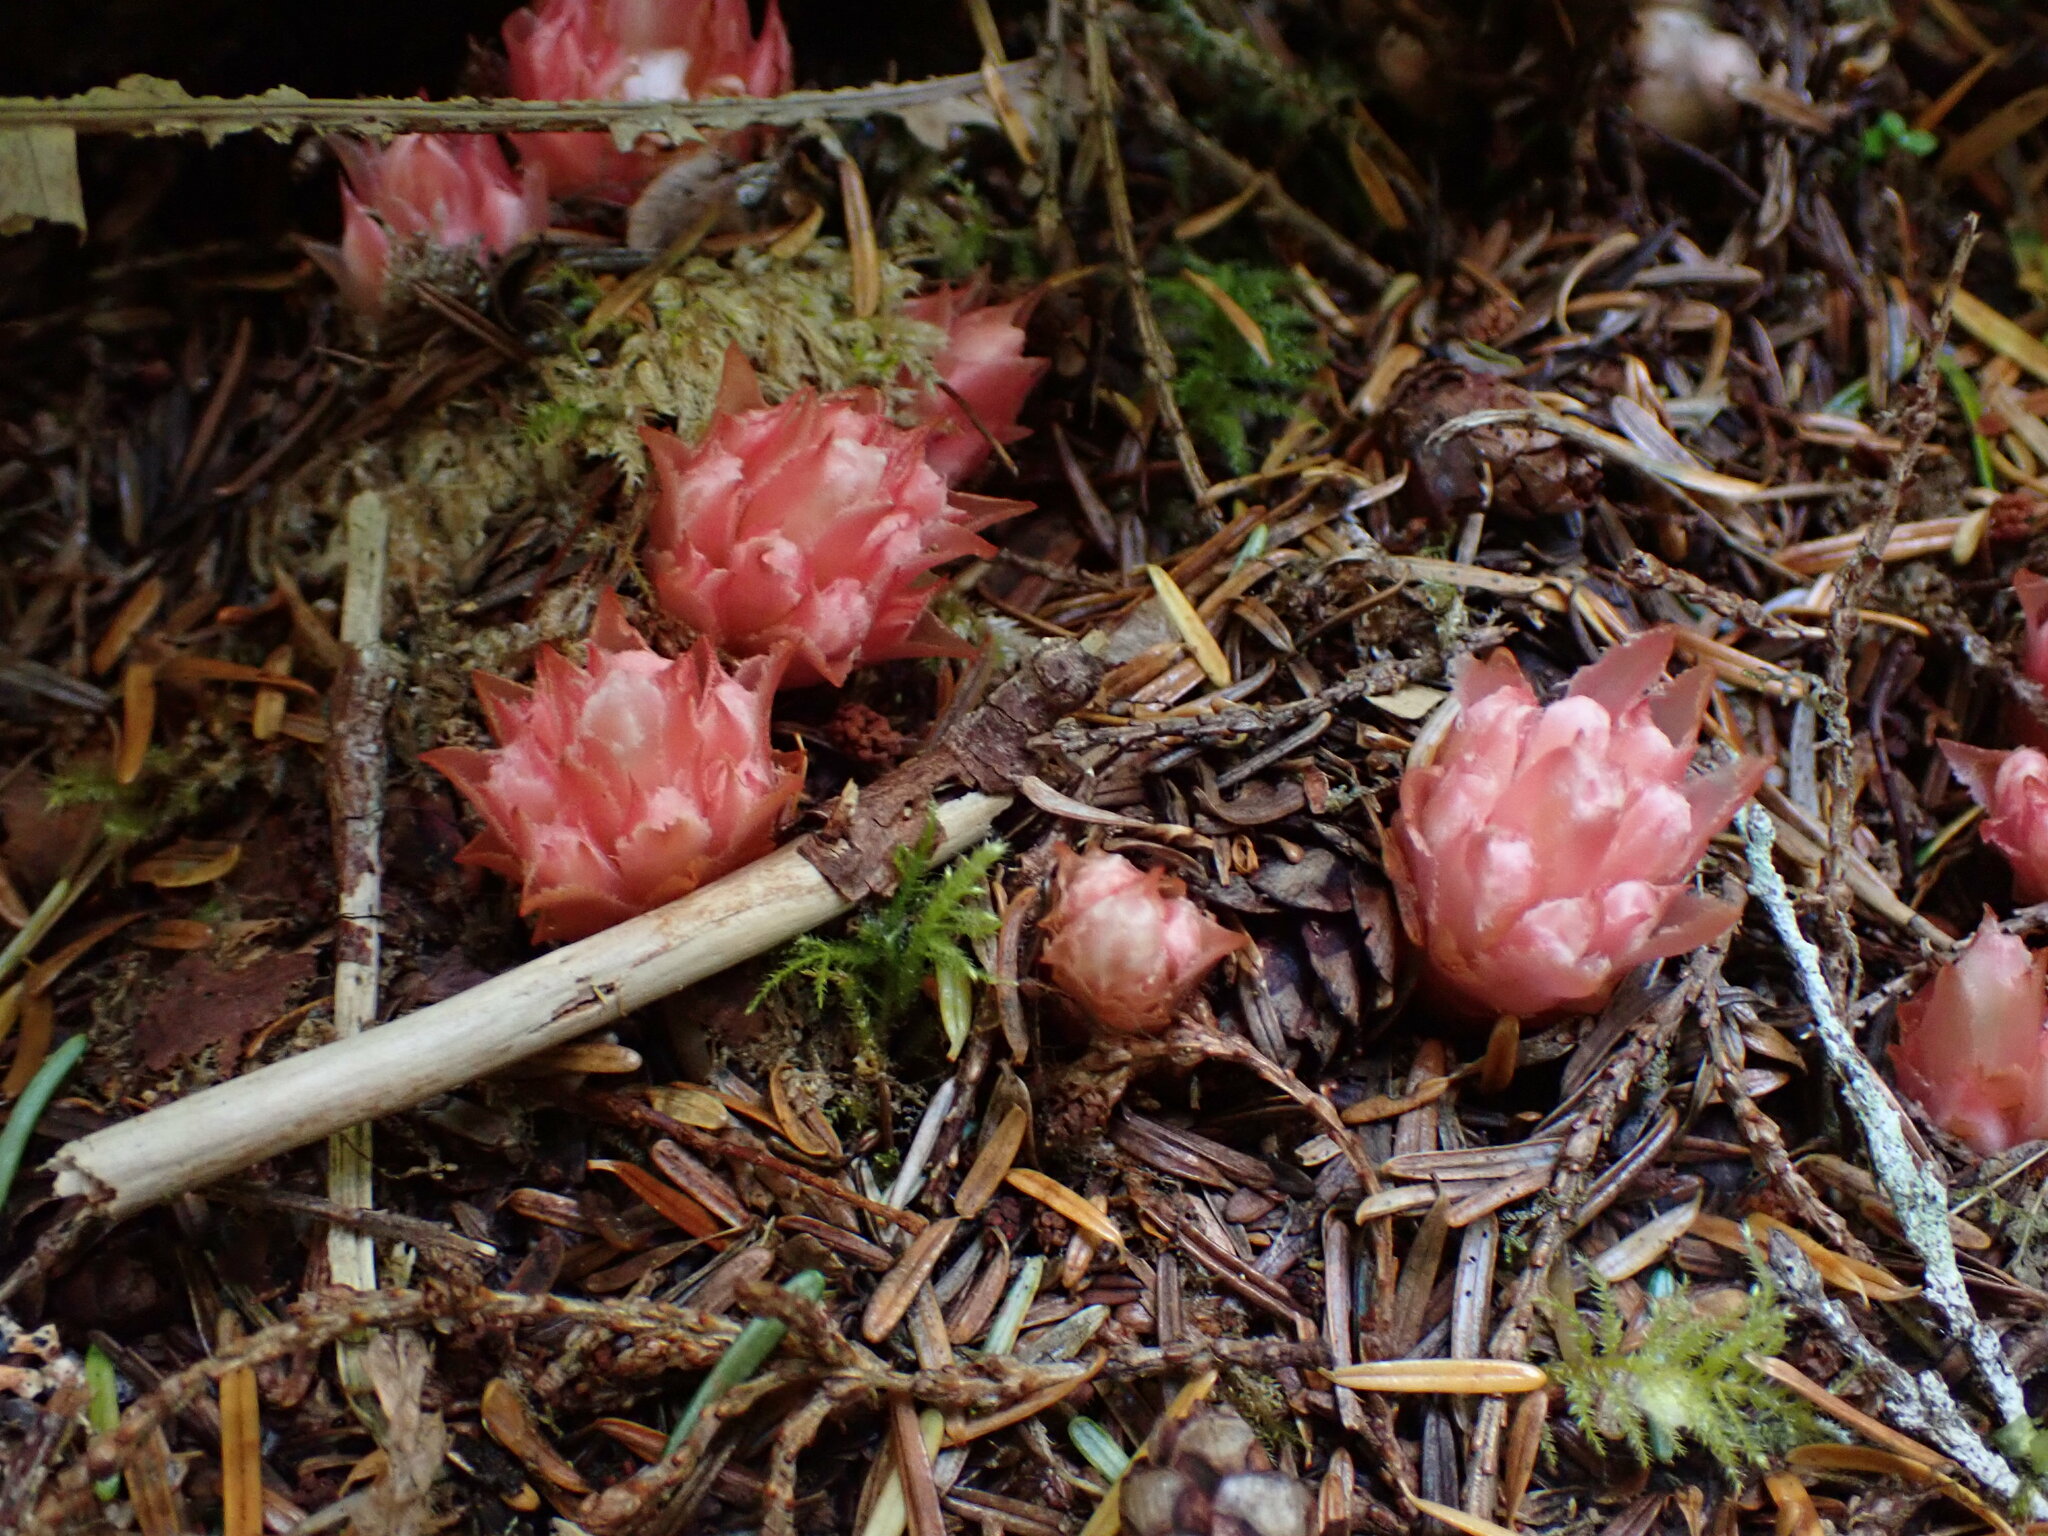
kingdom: Plantae
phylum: Tracheophyta
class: Magnoliopsida
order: Ericales
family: Ericaceae
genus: Hemitomes
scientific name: Hemitomes congestum
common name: Cone plant
